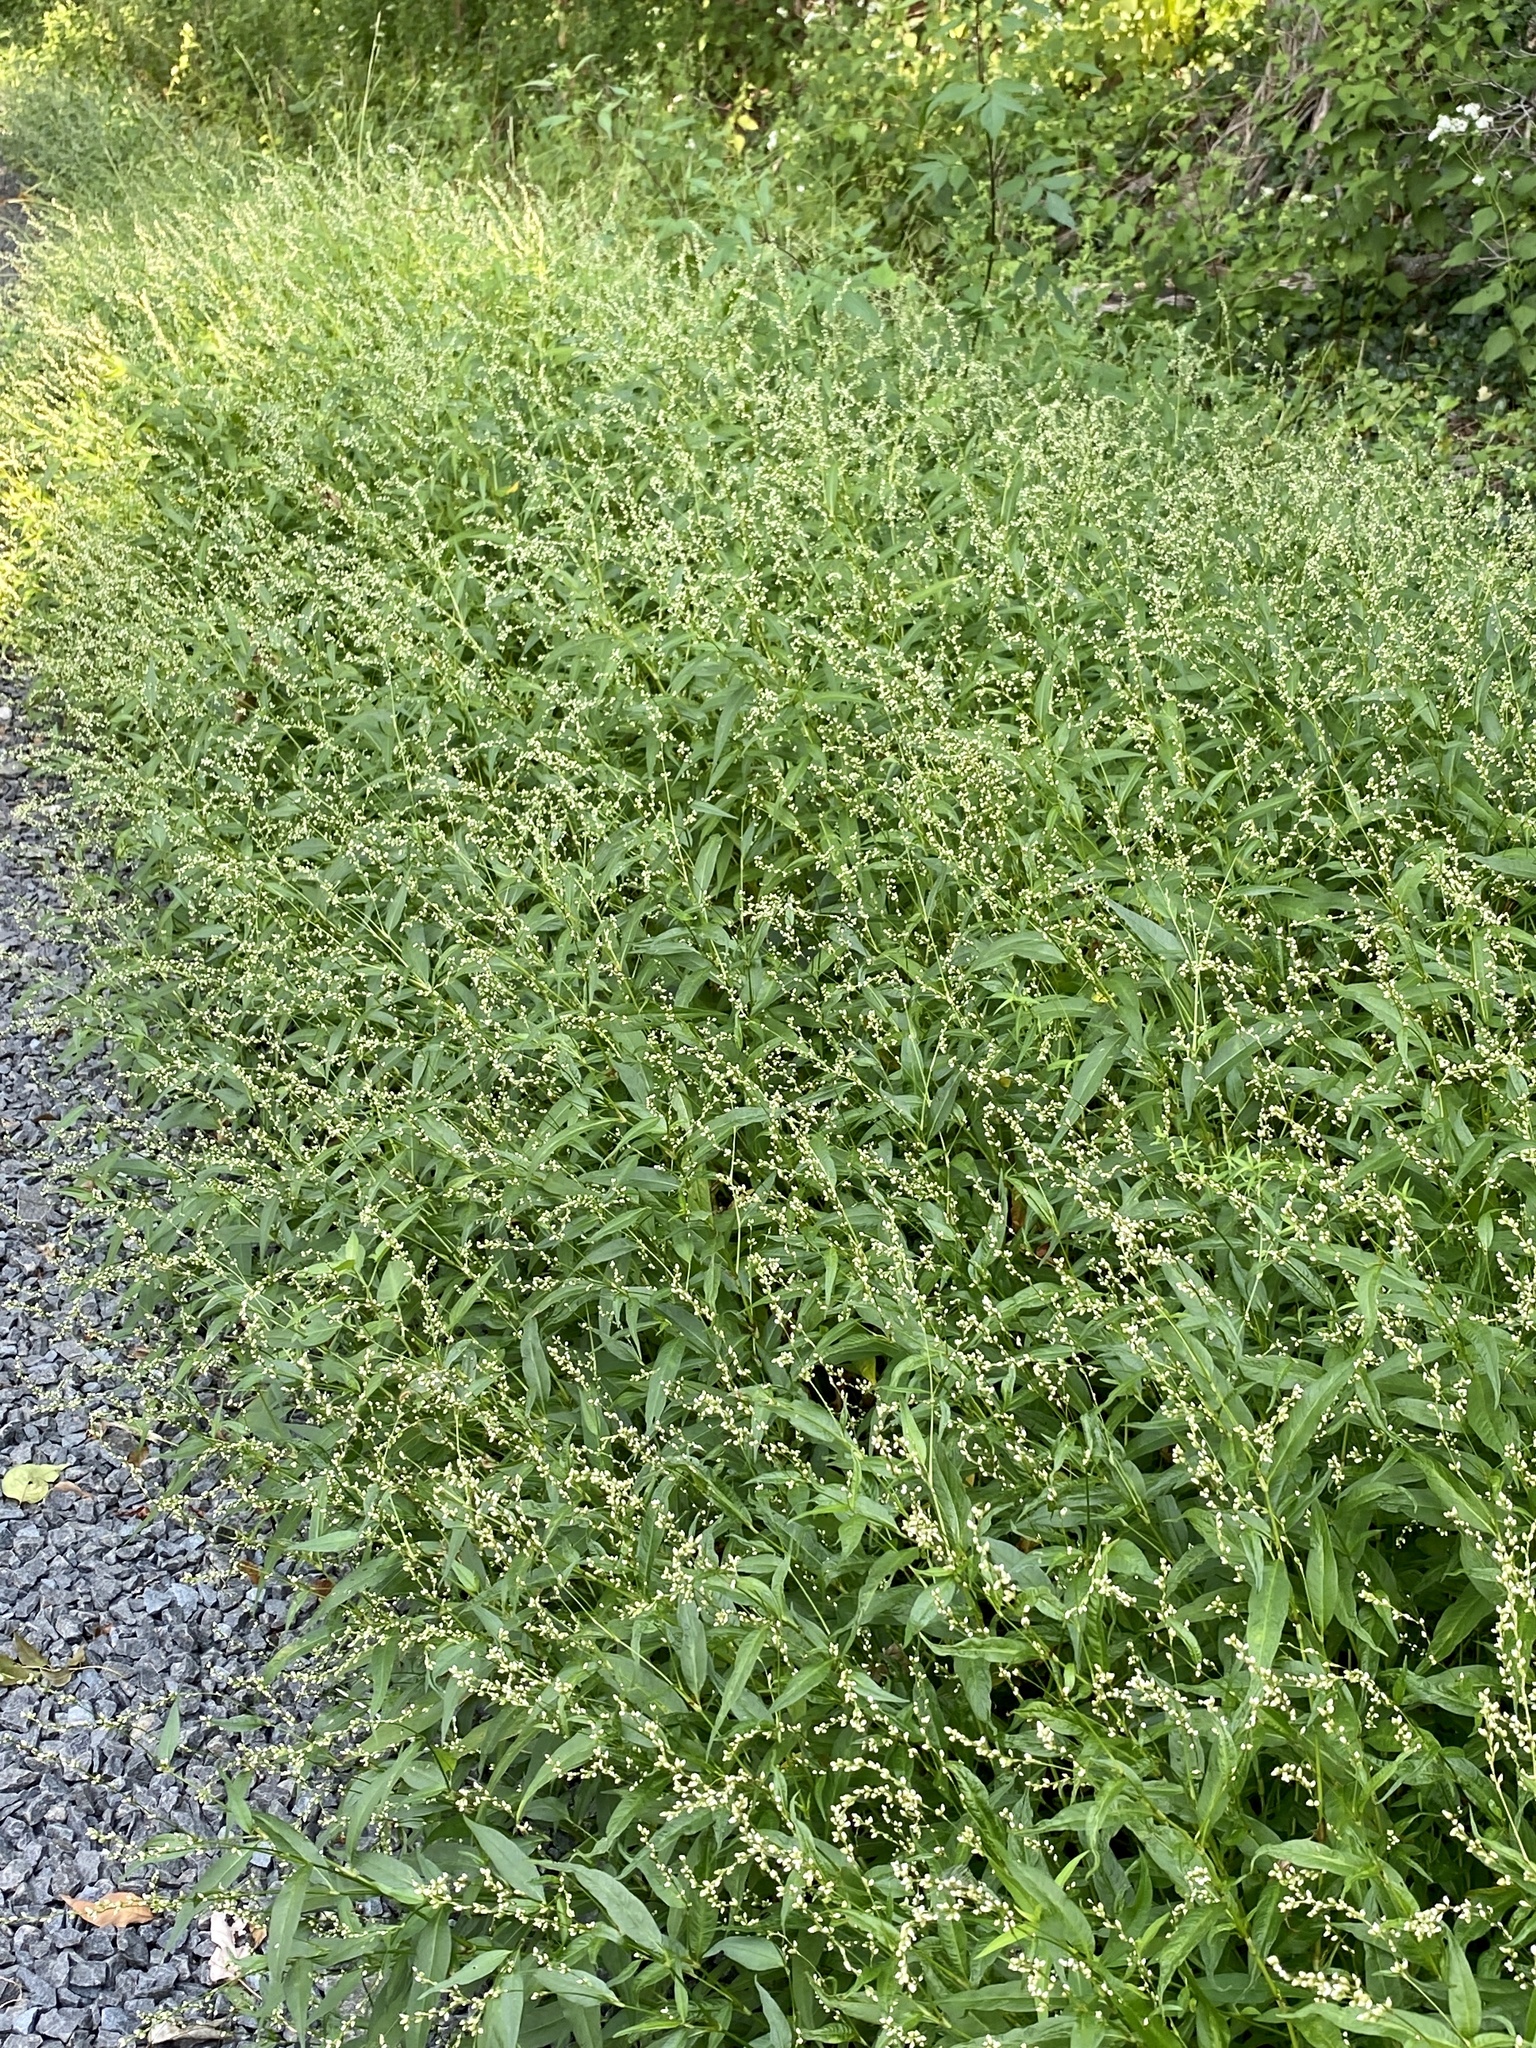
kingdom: Plantae
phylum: Tracheophyta
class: Magnoliopsida
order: Caryophyllales
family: Polygonaceae
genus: Persicaria
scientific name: Persicaria punctata
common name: Dotted smartweed
